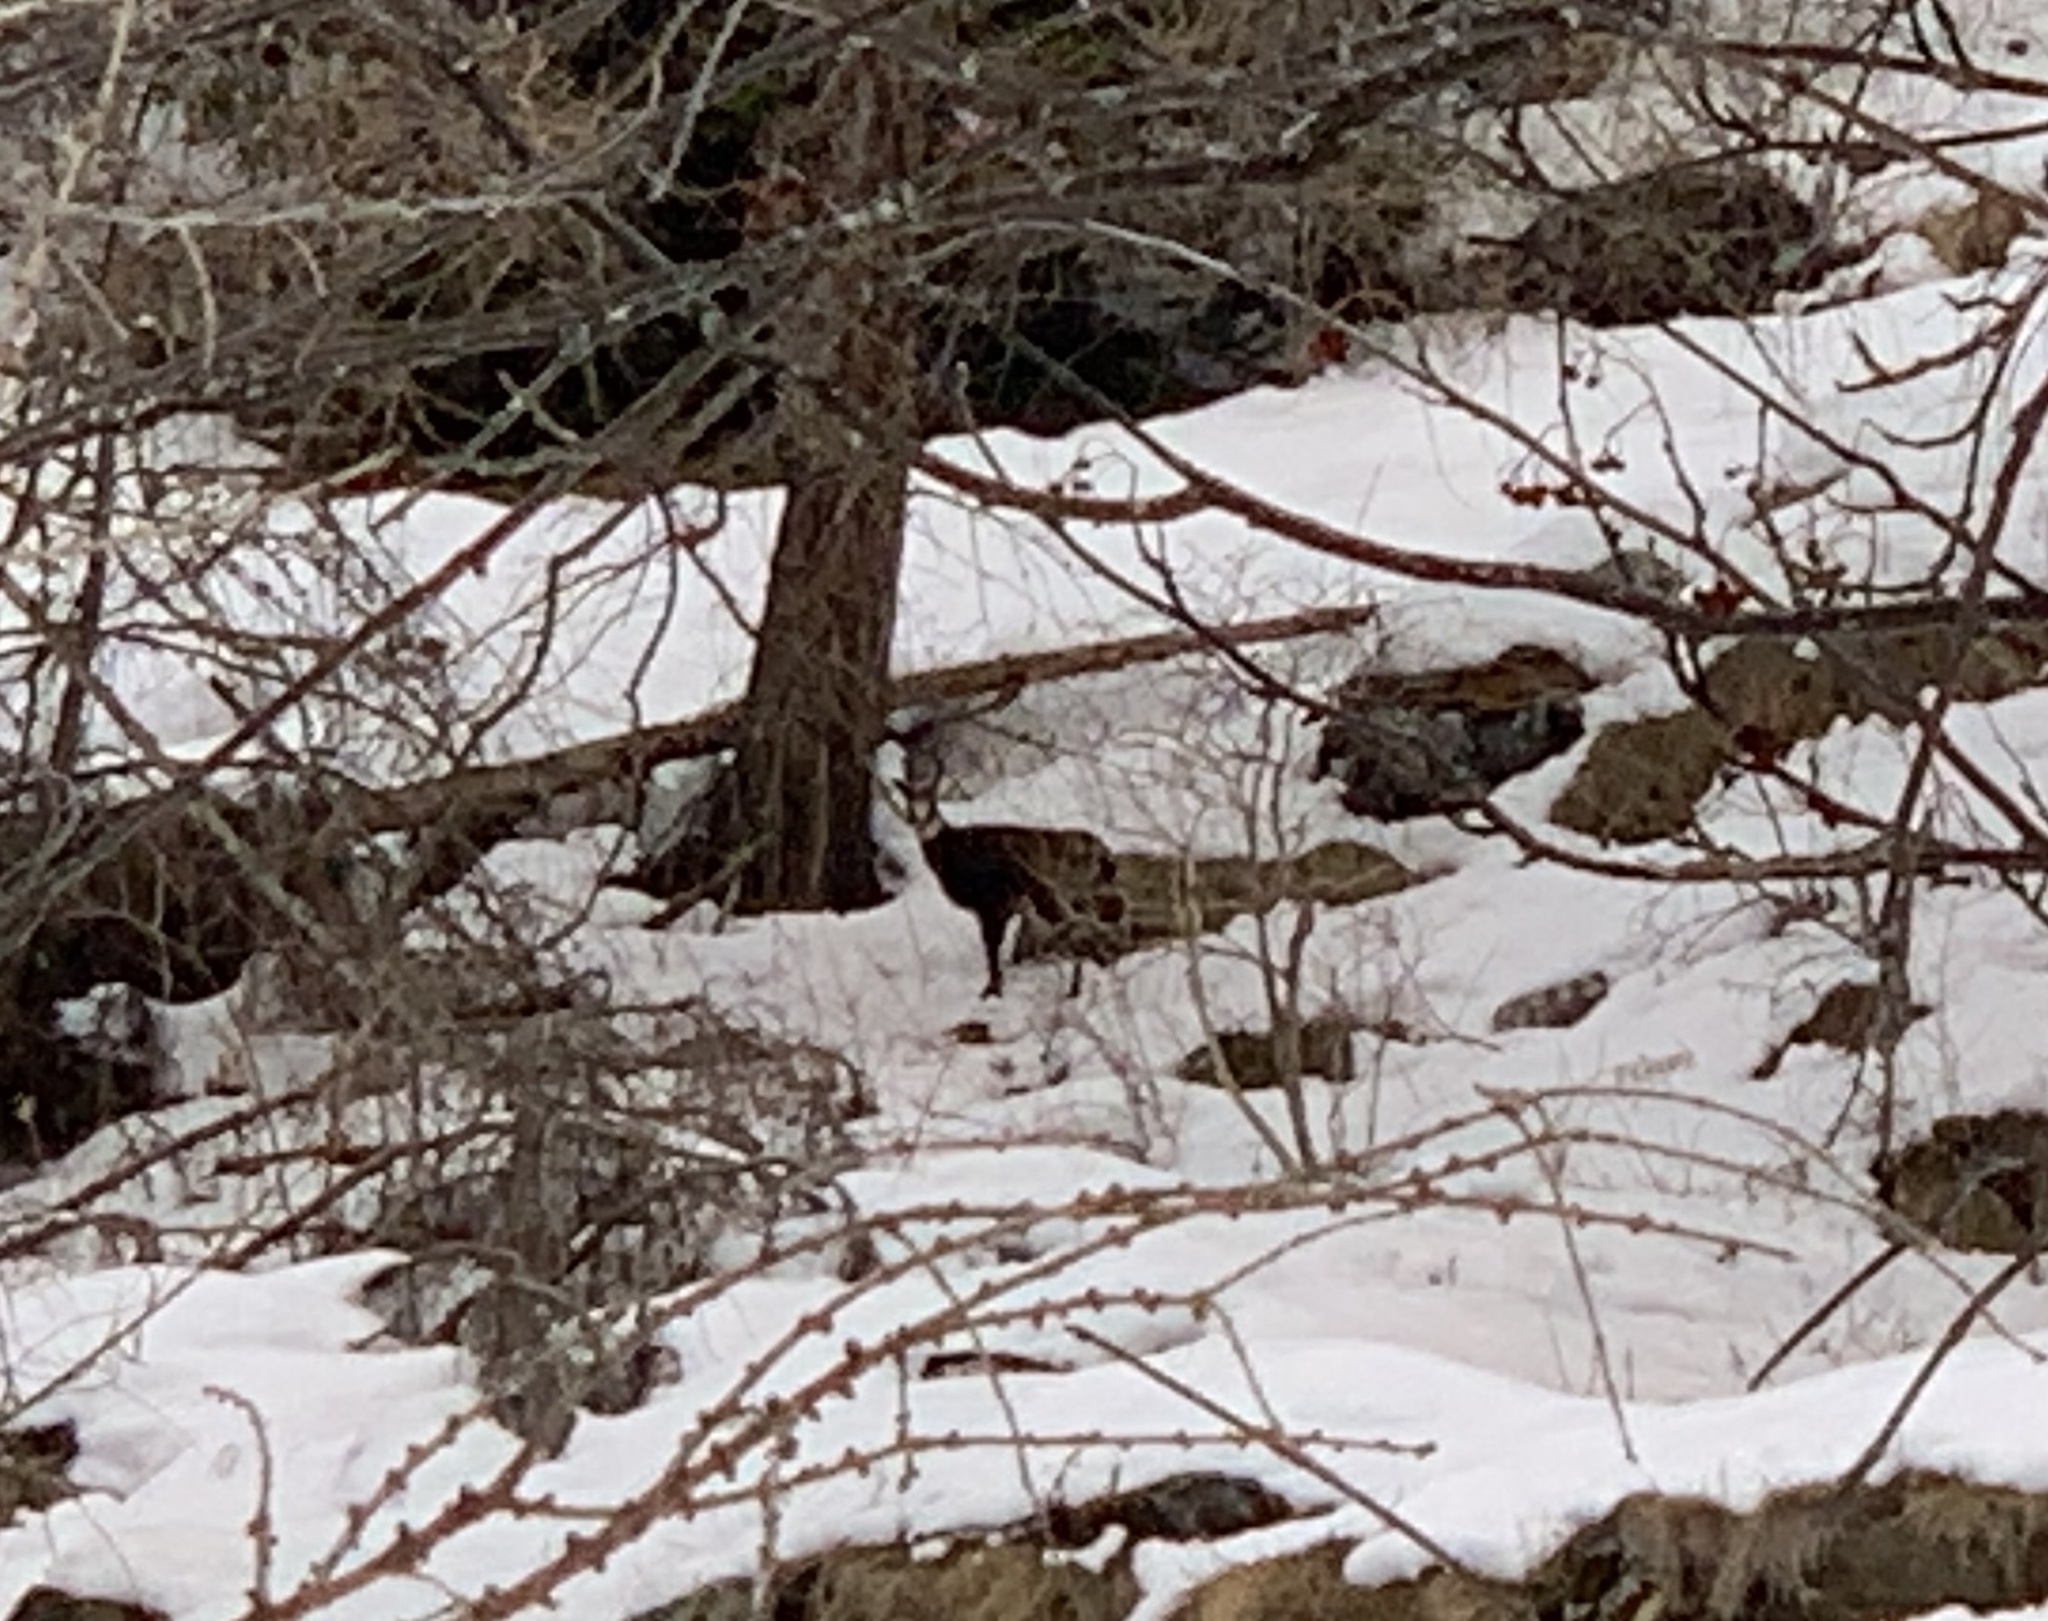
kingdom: Animalia
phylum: Chordata
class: Mammalia
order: Artiodactyla
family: Bovidae
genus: Rupicapra
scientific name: Rupicapra rupicapra
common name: Chamois
